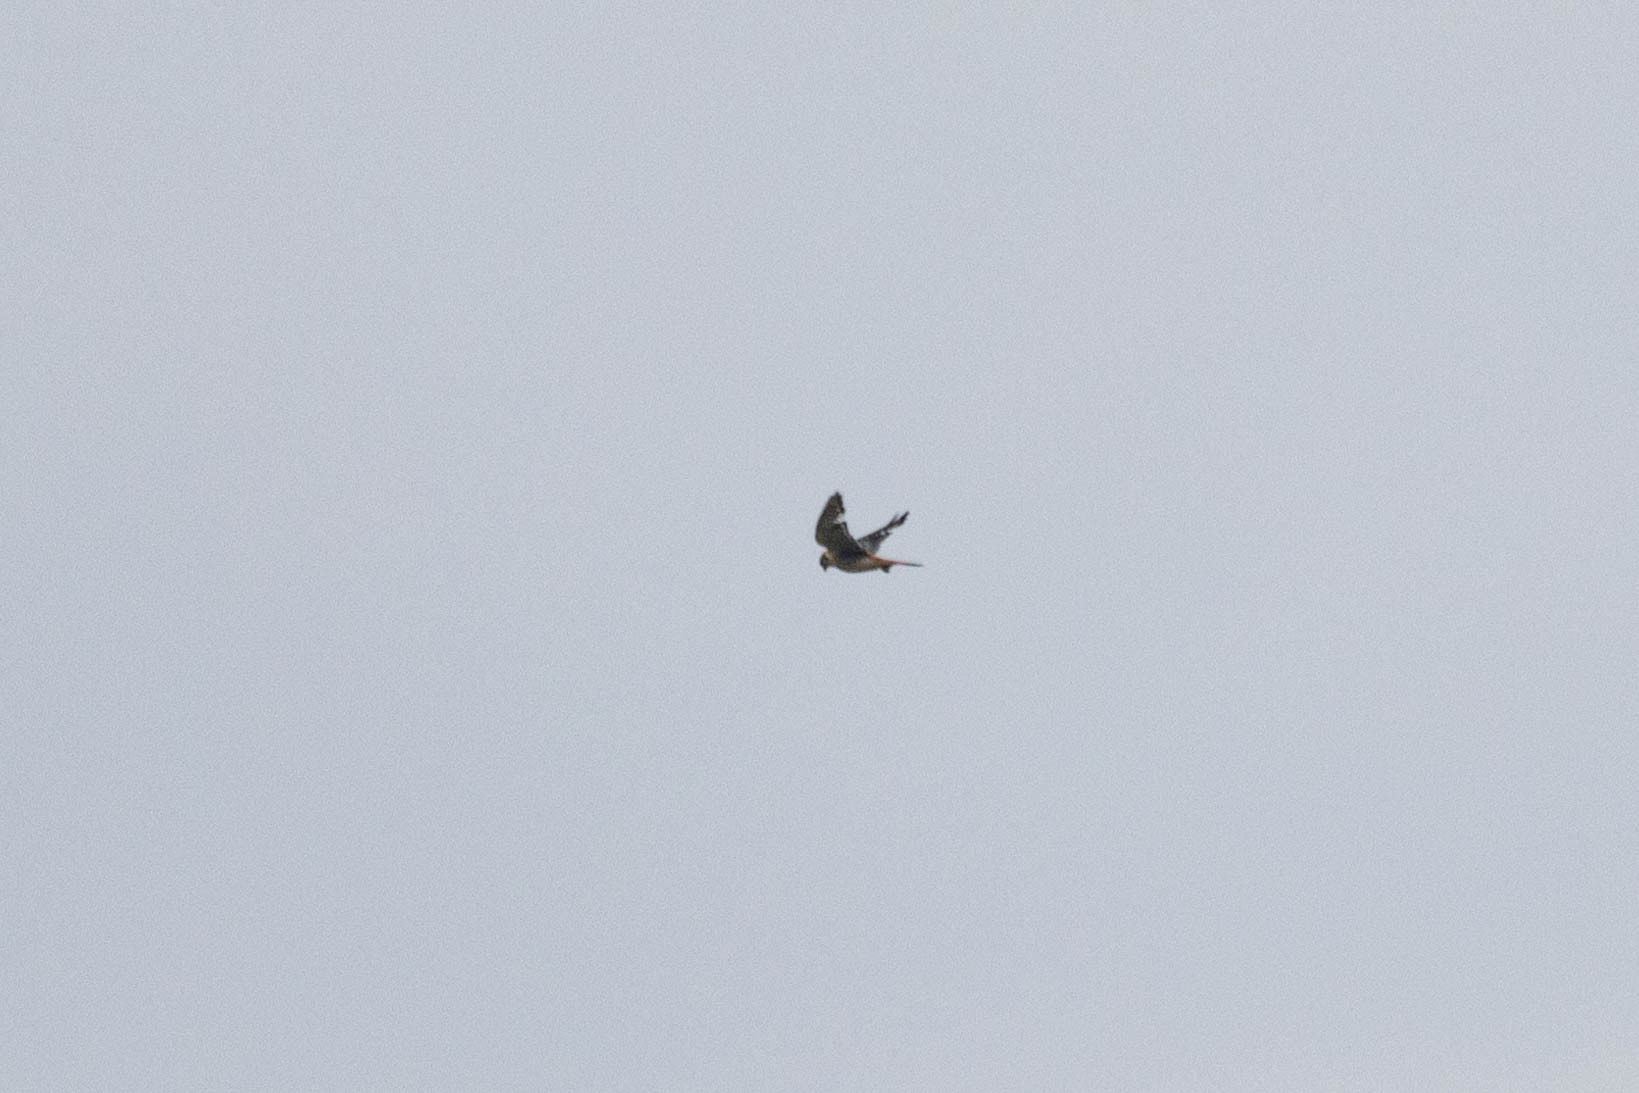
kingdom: Animalia
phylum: Chordata
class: Aves
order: Falconiformes
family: Falconidae
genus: Falco
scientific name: Falco sparverius
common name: American kestrel
